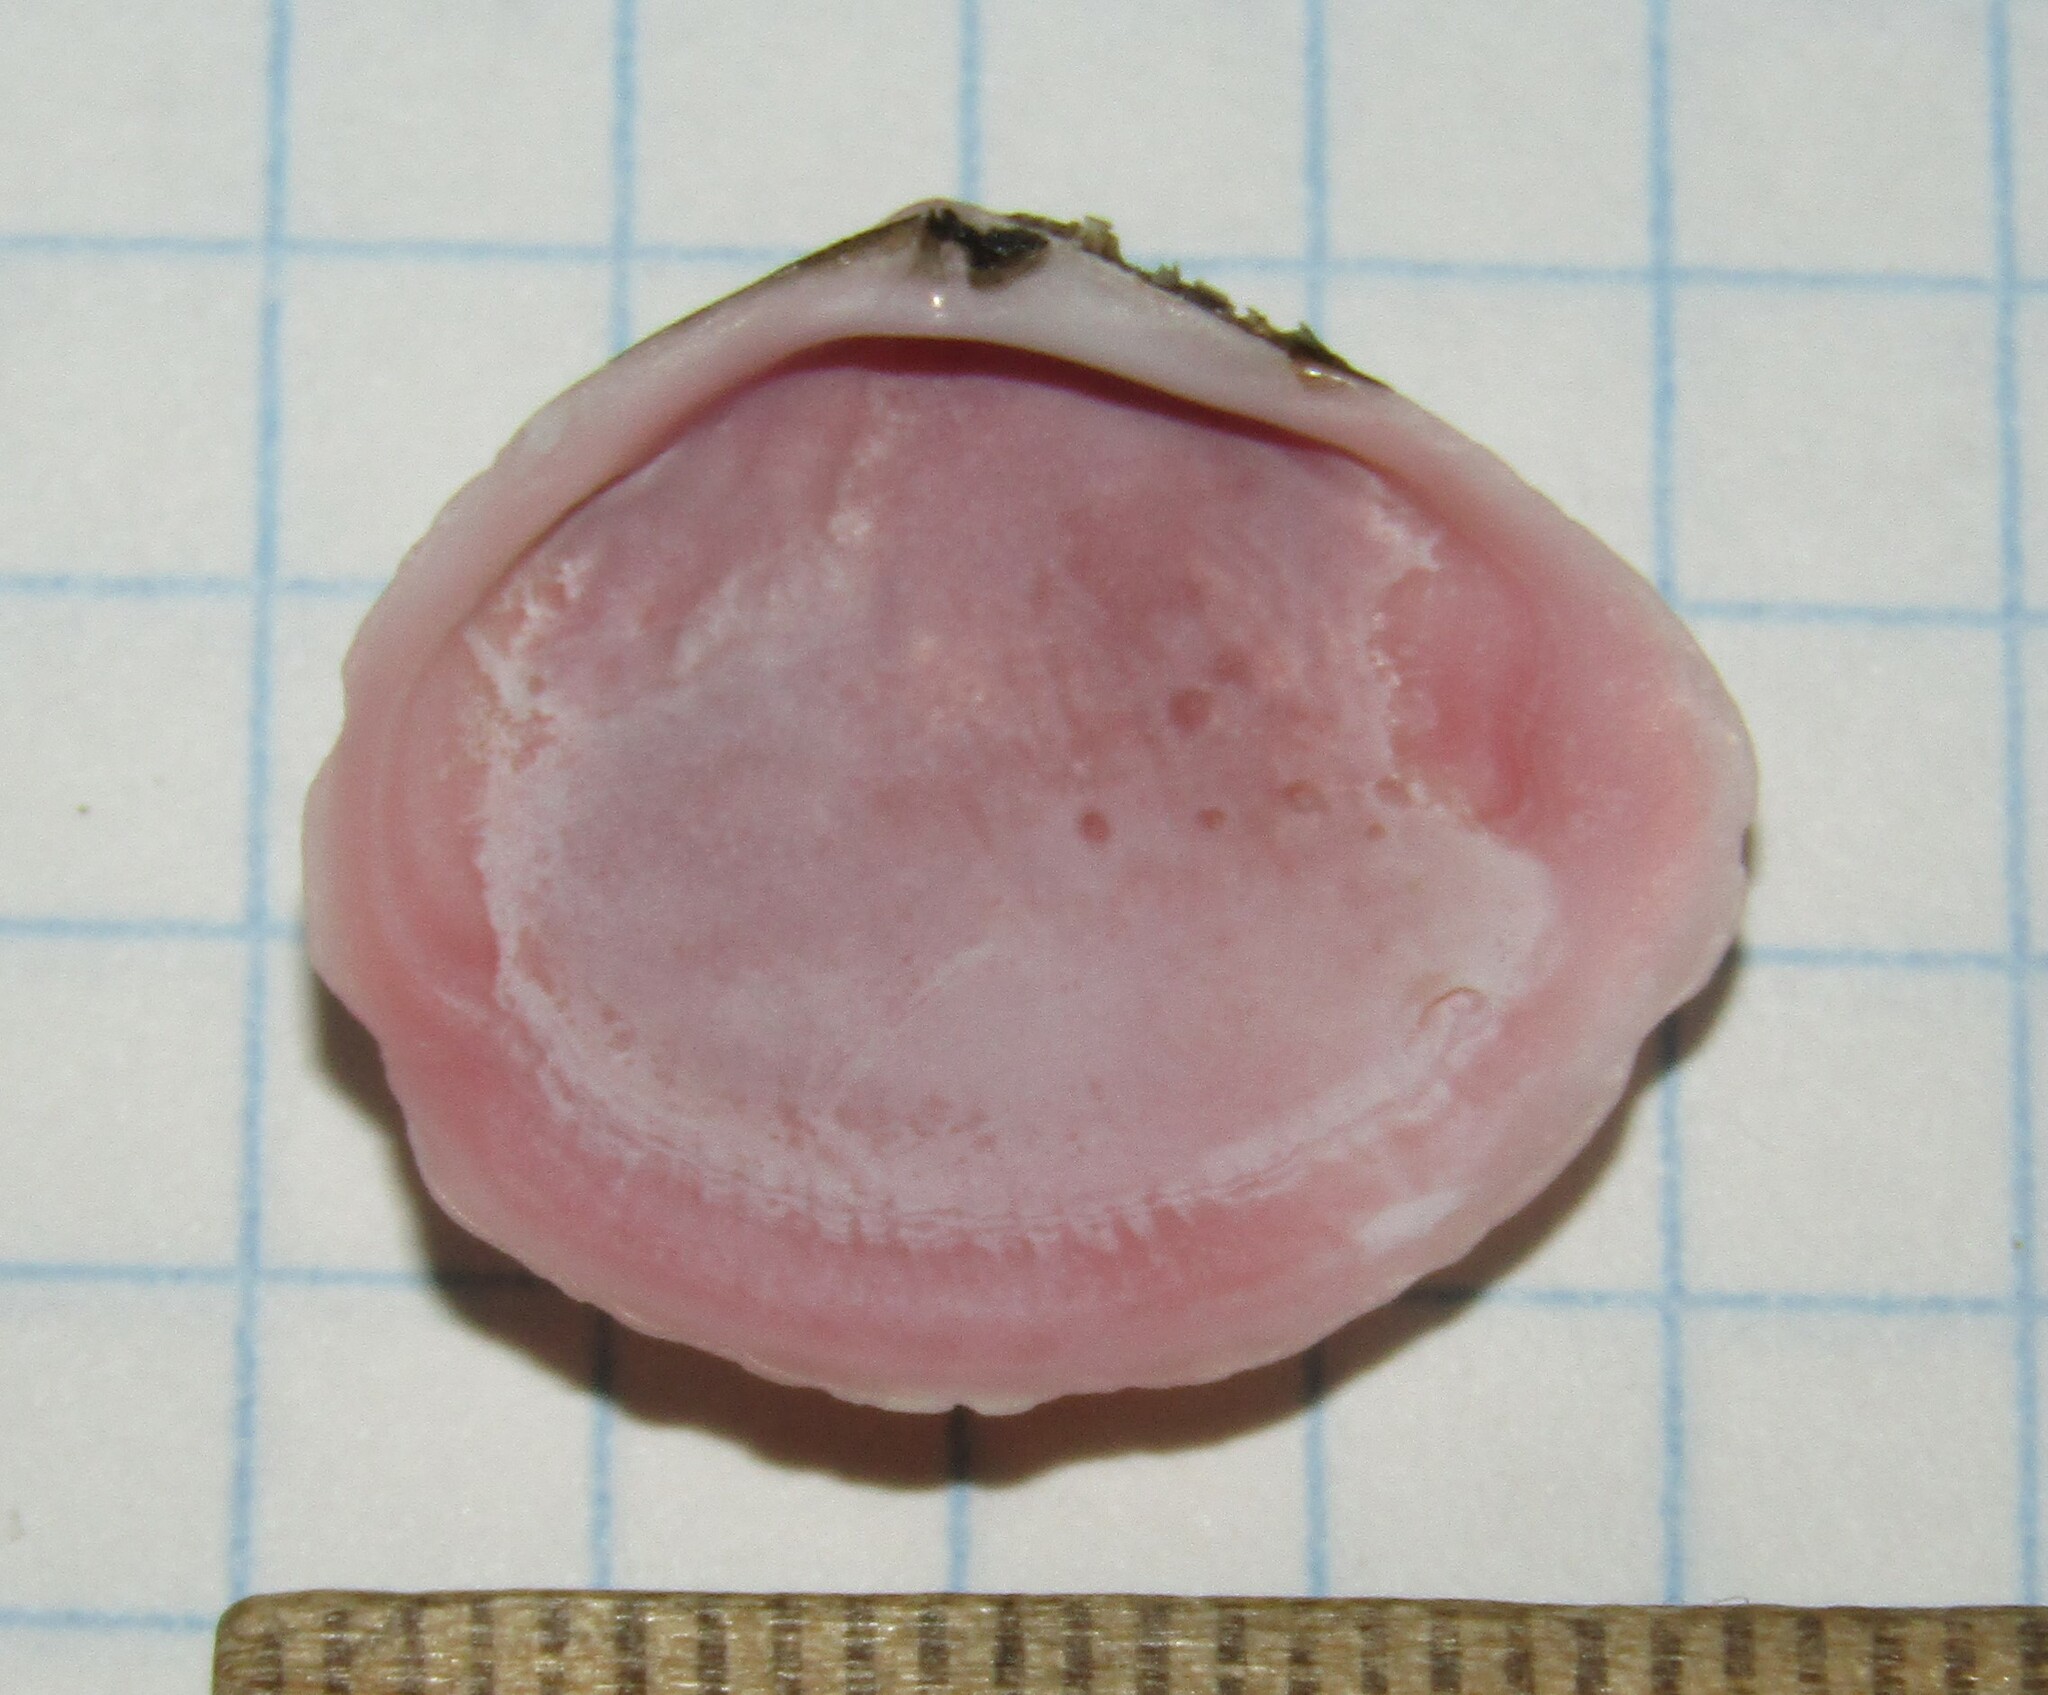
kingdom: Animalia
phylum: Mollusca
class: Bivalvia
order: Cardiida
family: Tellinidae
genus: Macoma
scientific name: Macoma balthica
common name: Baltic tellin
